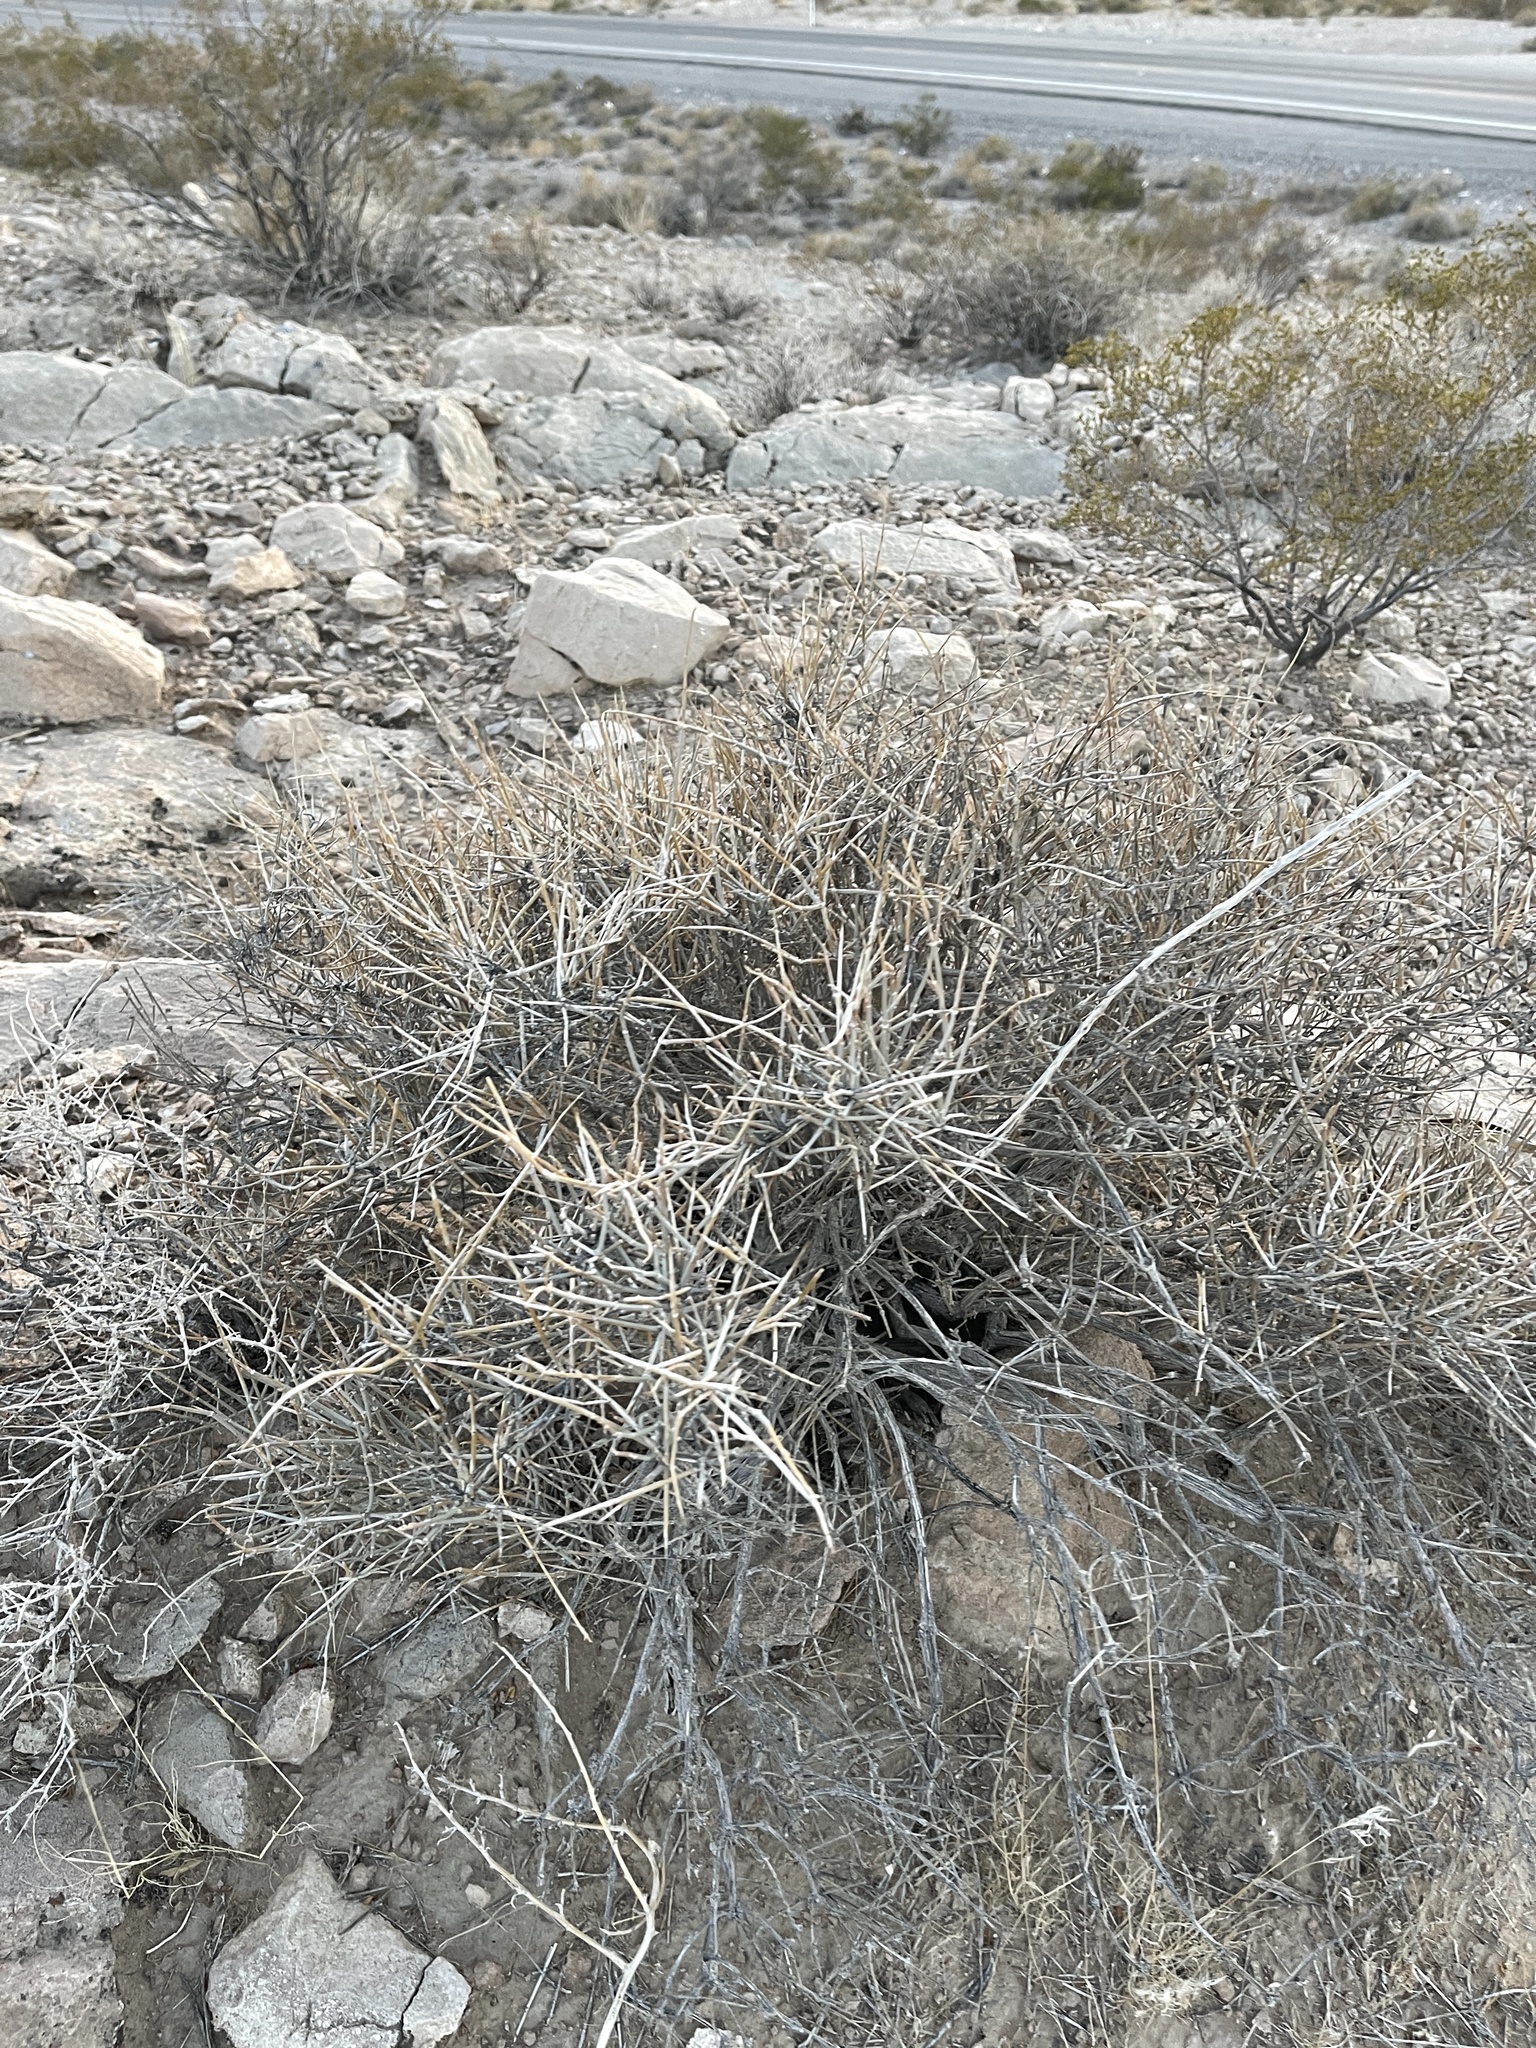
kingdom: Plantae
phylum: Tracheophyta
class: Gnetopsida
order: Ephedrales
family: Ephedraceae
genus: Ephedra
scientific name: Ephedra nevadensis
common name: Gray ephedra
